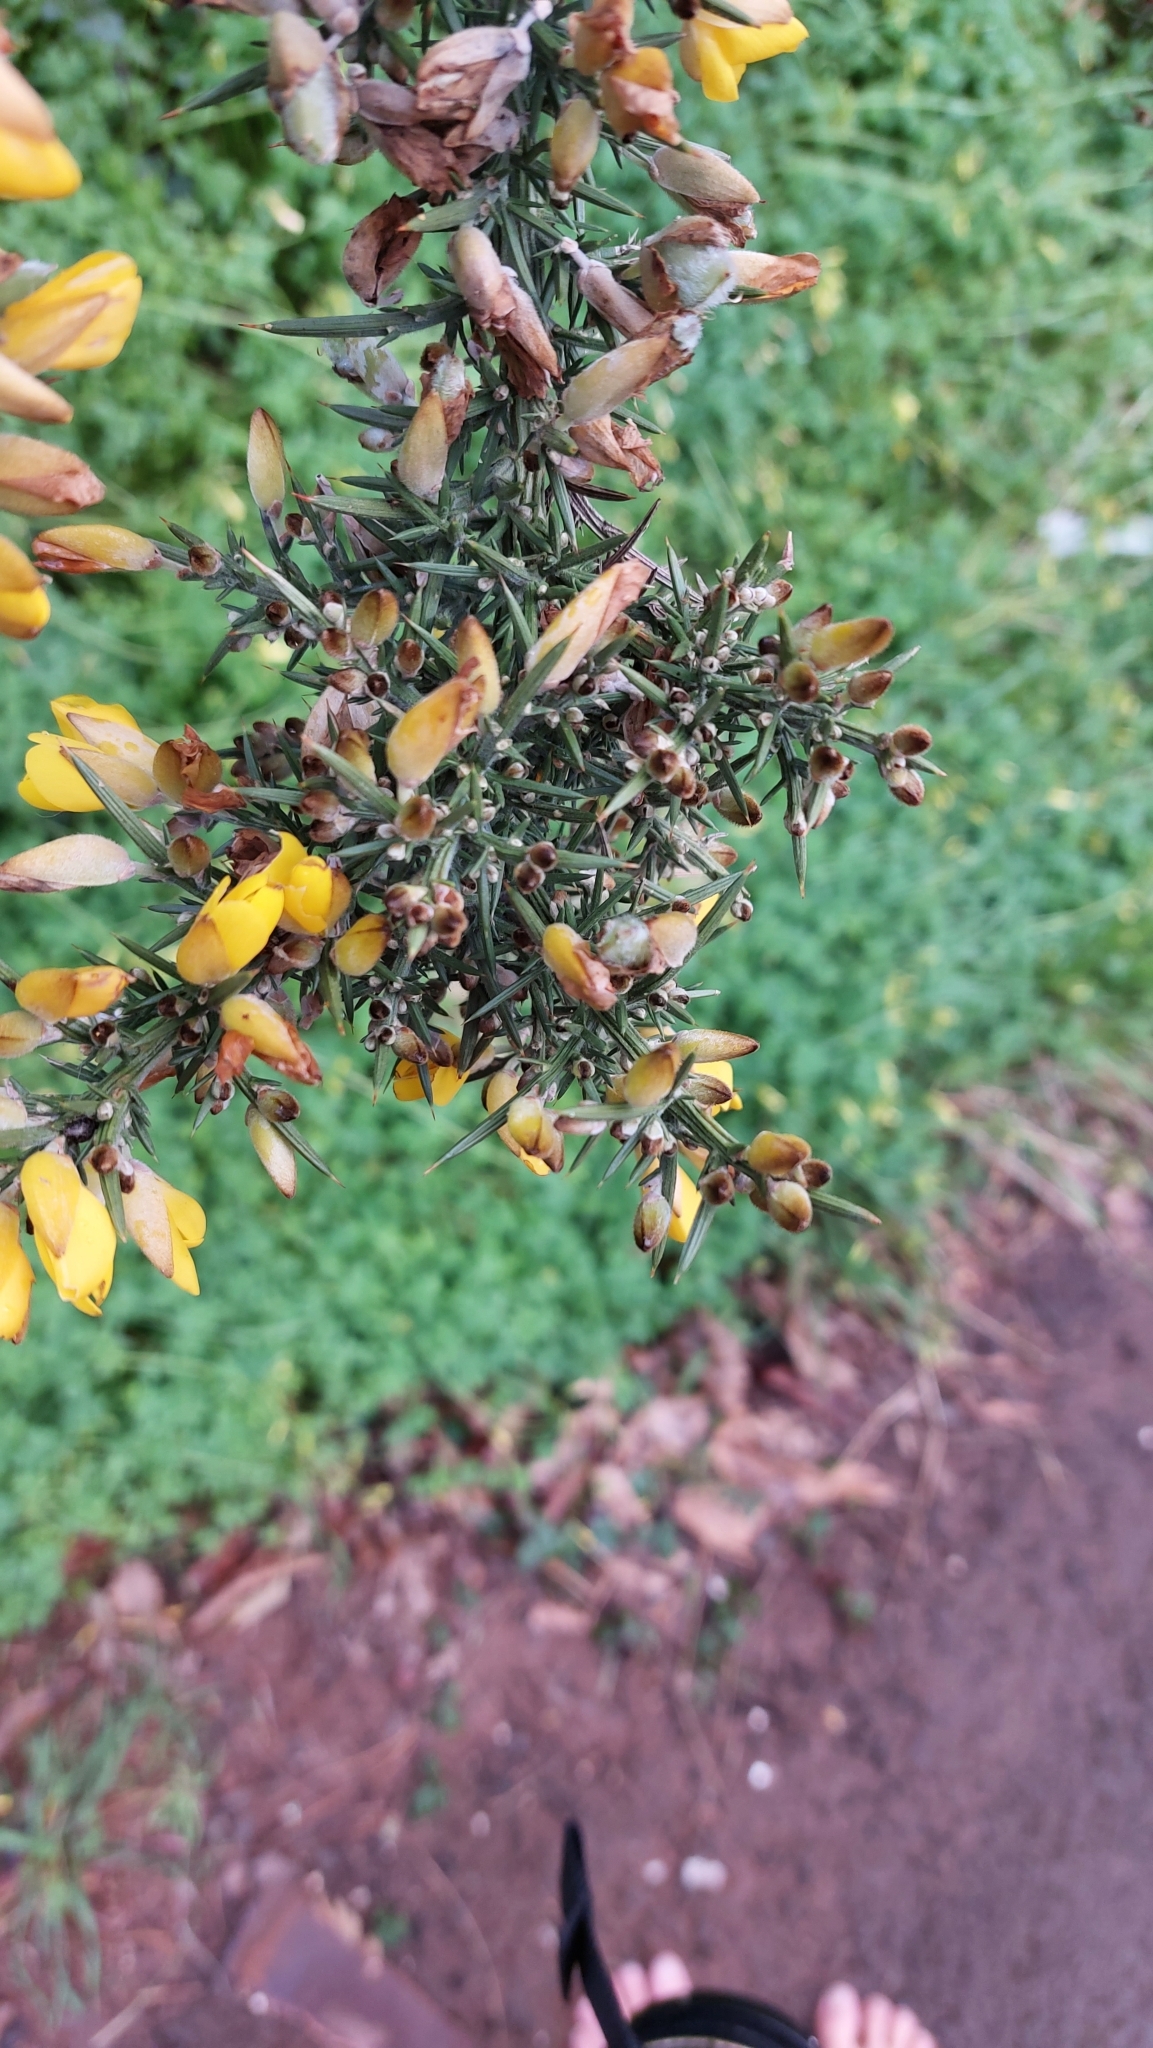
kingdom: Plantae
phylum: Tracheophyta
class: Magnoliopsida
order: Fabales
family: Fabaceae
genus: Ulex
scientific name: Ulex europaeus
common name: Common gorse
